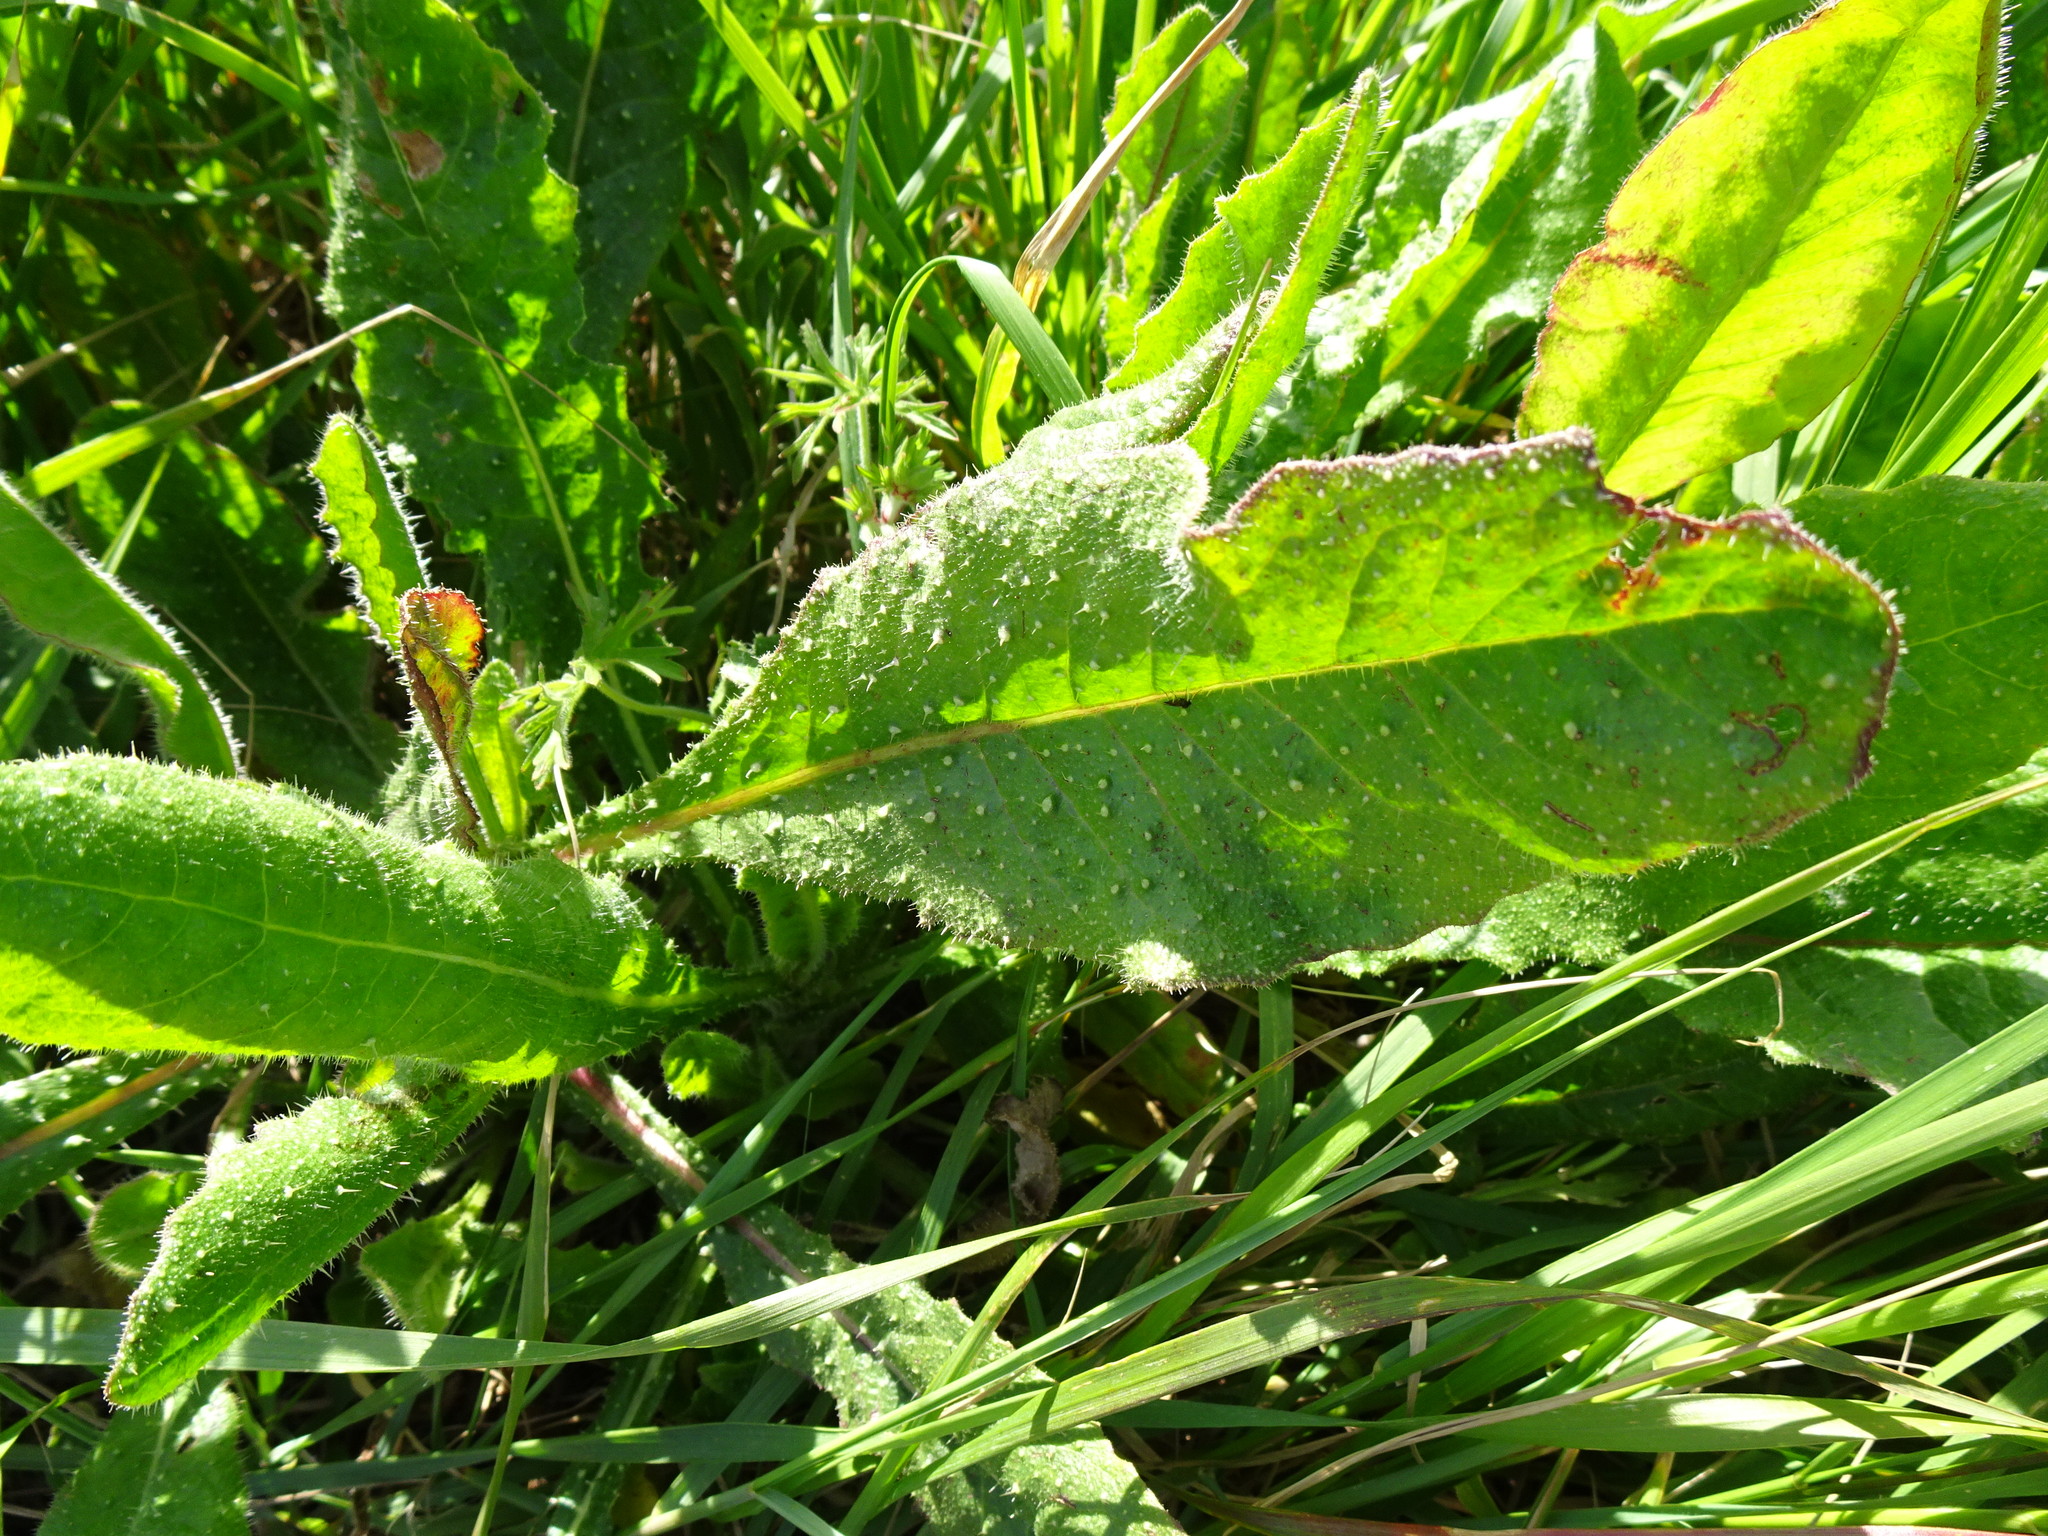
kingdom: Plantae
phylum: Tracheophyta
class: Magnoliopsida
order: Asterales
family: Asteraceae
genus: Helminthotheca
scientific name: Helminthotheca echioides
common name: Ox-tongue
